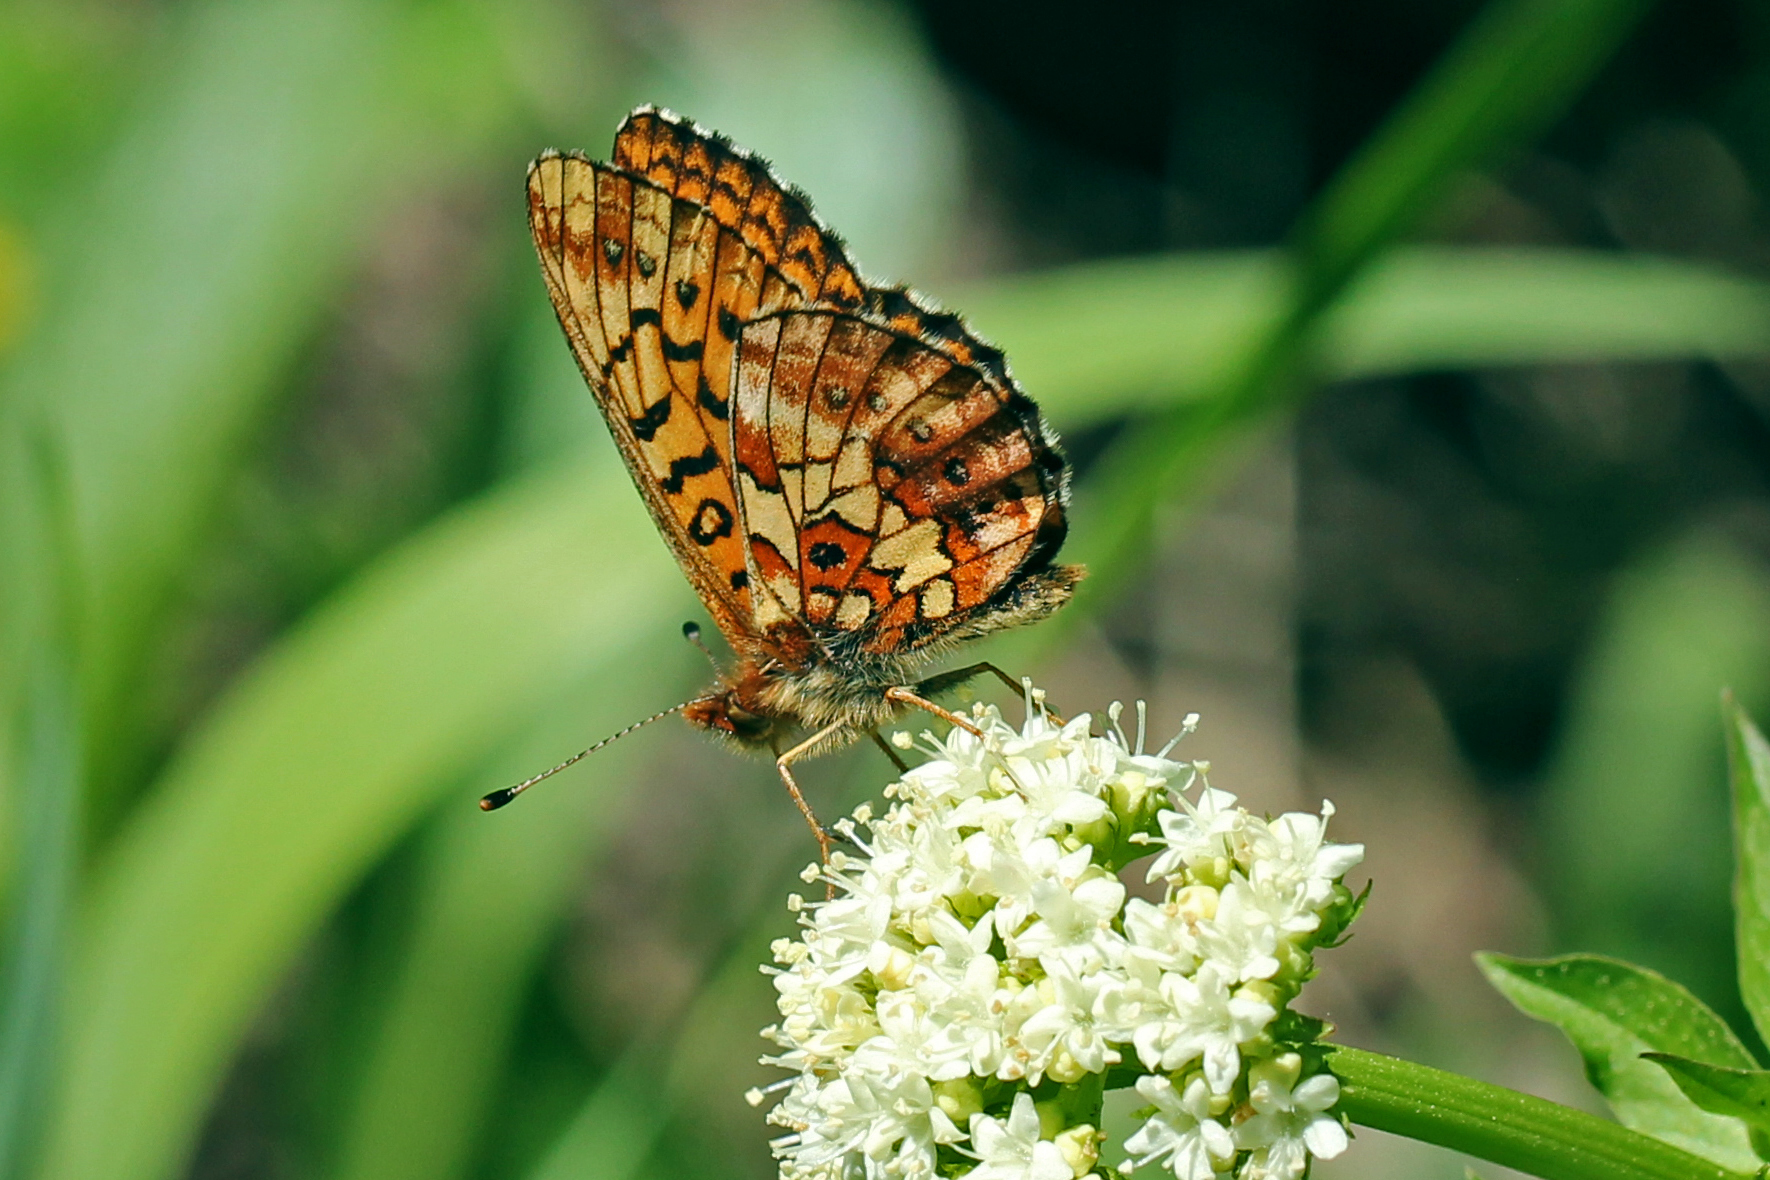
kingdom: Animalia
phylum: Arthropoda
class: Insecta
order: Lepidoptera
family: Nymphalidae
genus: Boloria
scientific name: Boloria kriemhild
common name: Relict fritillary
